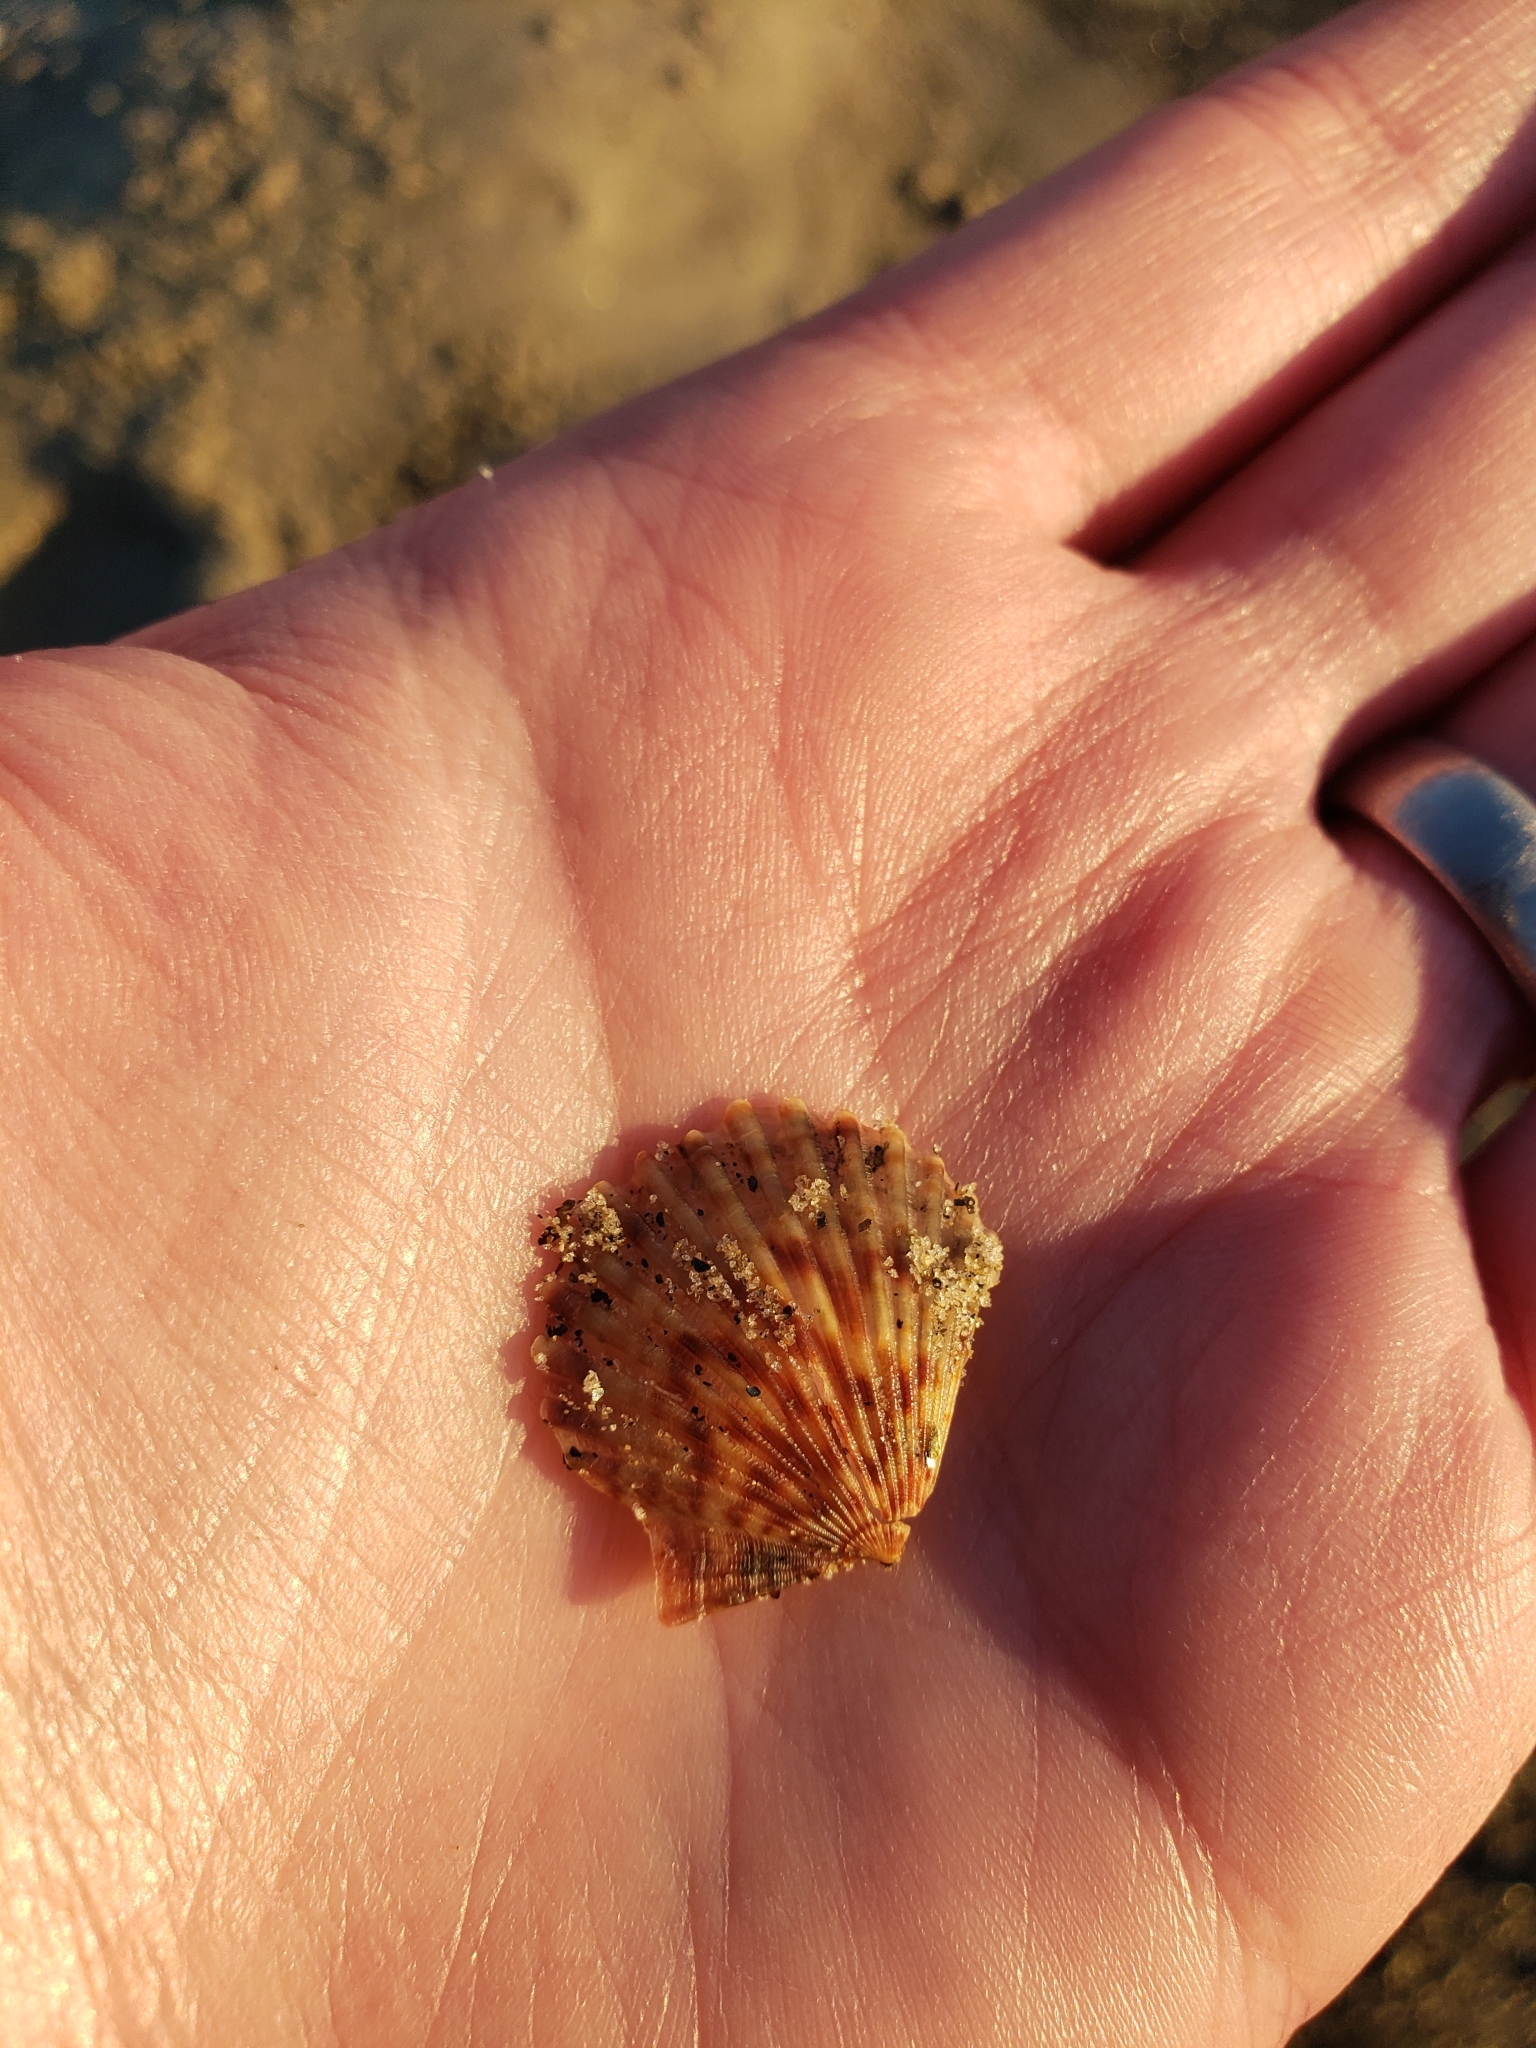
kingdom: Animalia
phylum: Mollusca
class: Bivalvia
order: Pectinida
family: Pectinidae
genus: Argopecten
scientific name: Argopecten ventricosus
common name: Catarina scallop
